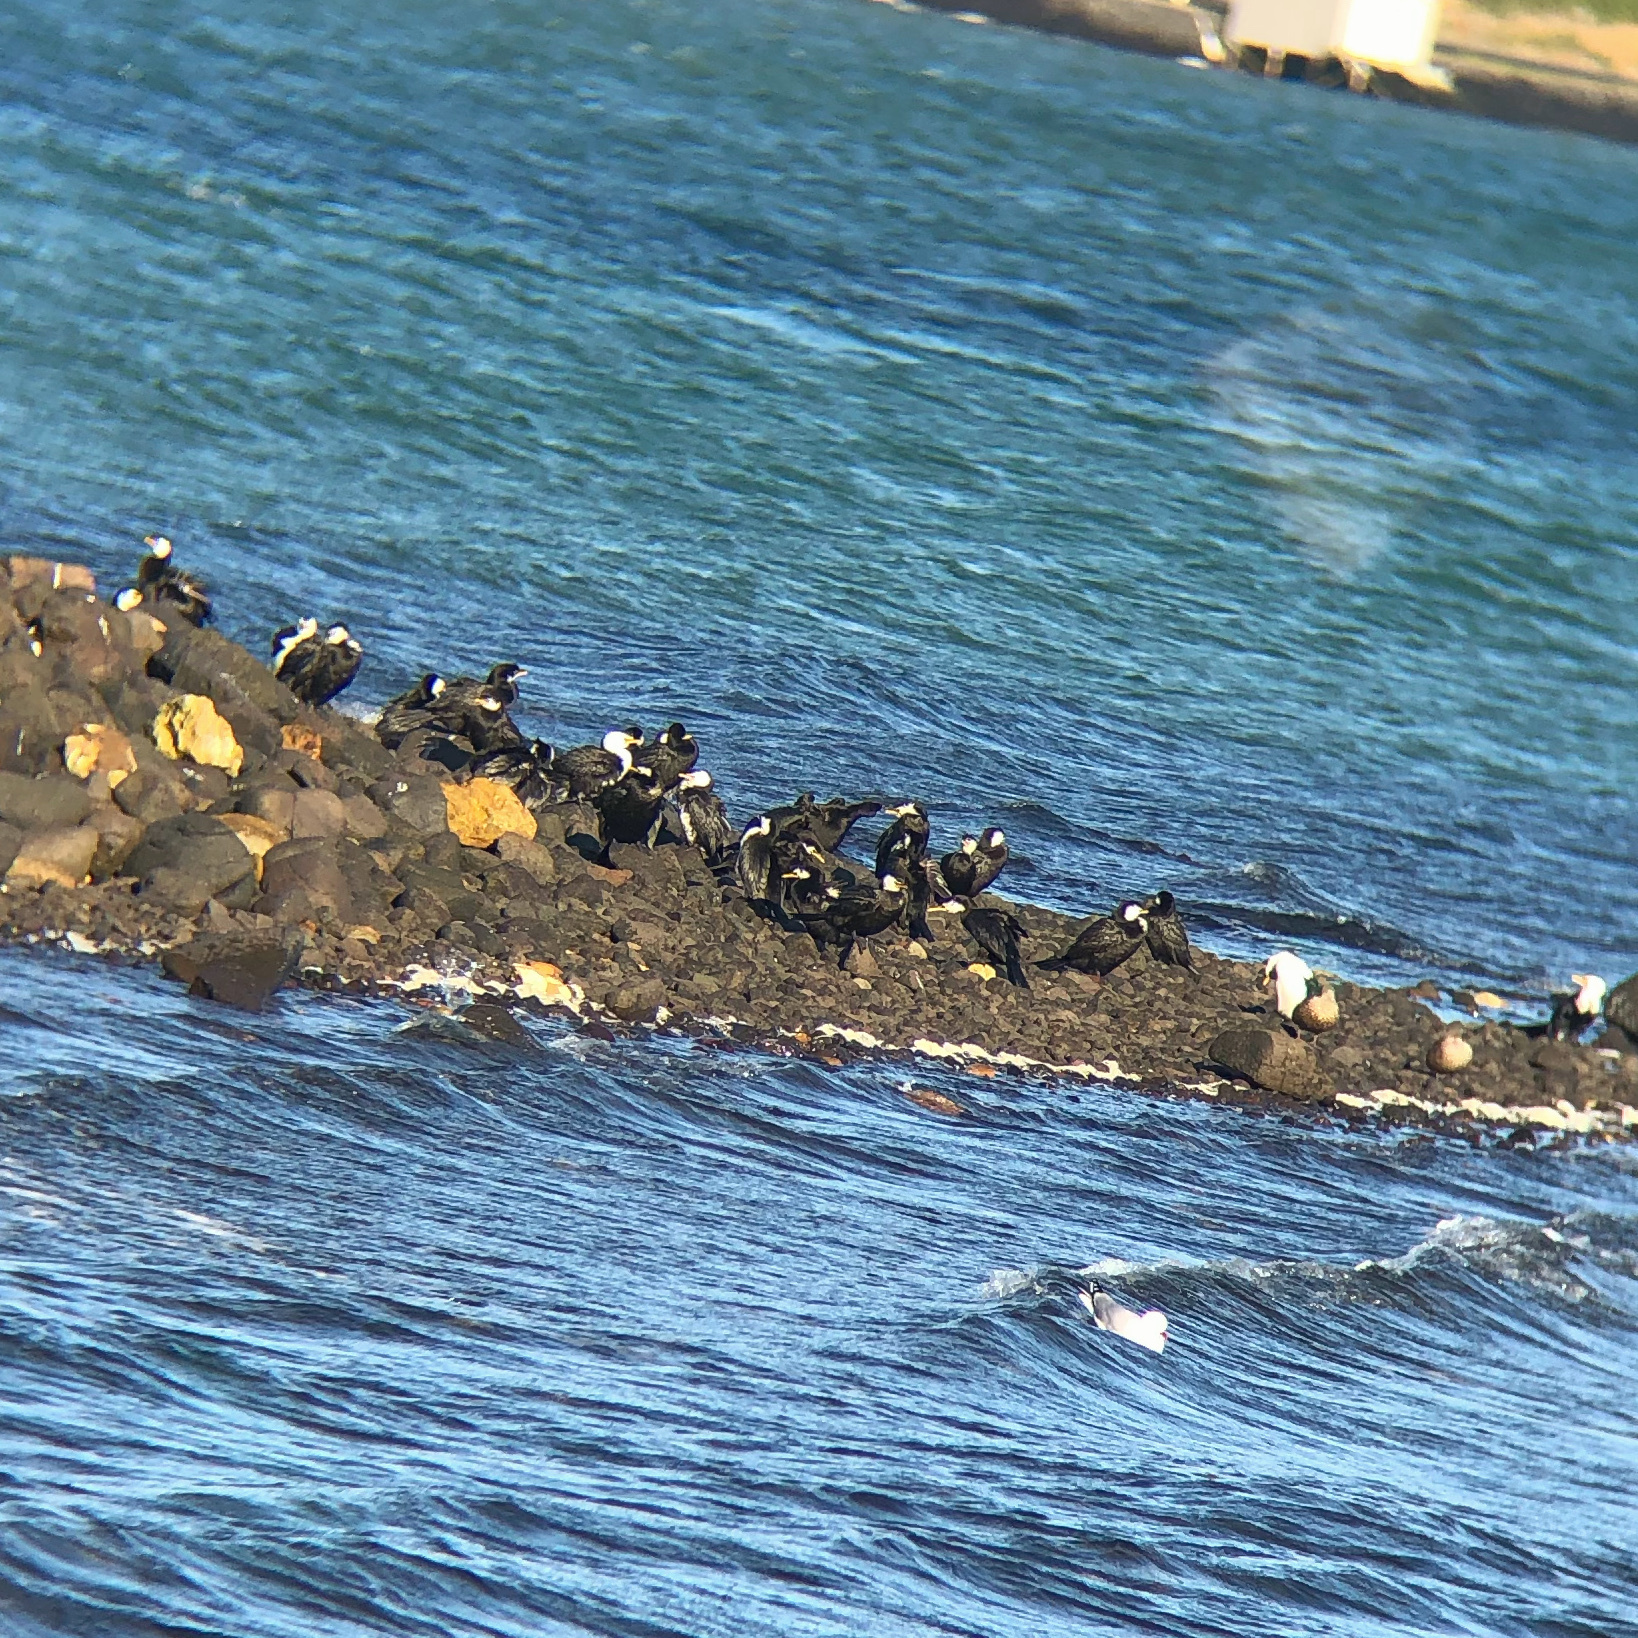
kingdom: Animalia
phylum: Chordata
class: Aves
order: Suliformes
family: Phalacrocoracidae
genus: Microcarbo
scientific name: Microcarbo melanoleucos
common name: Little pied cormorant
